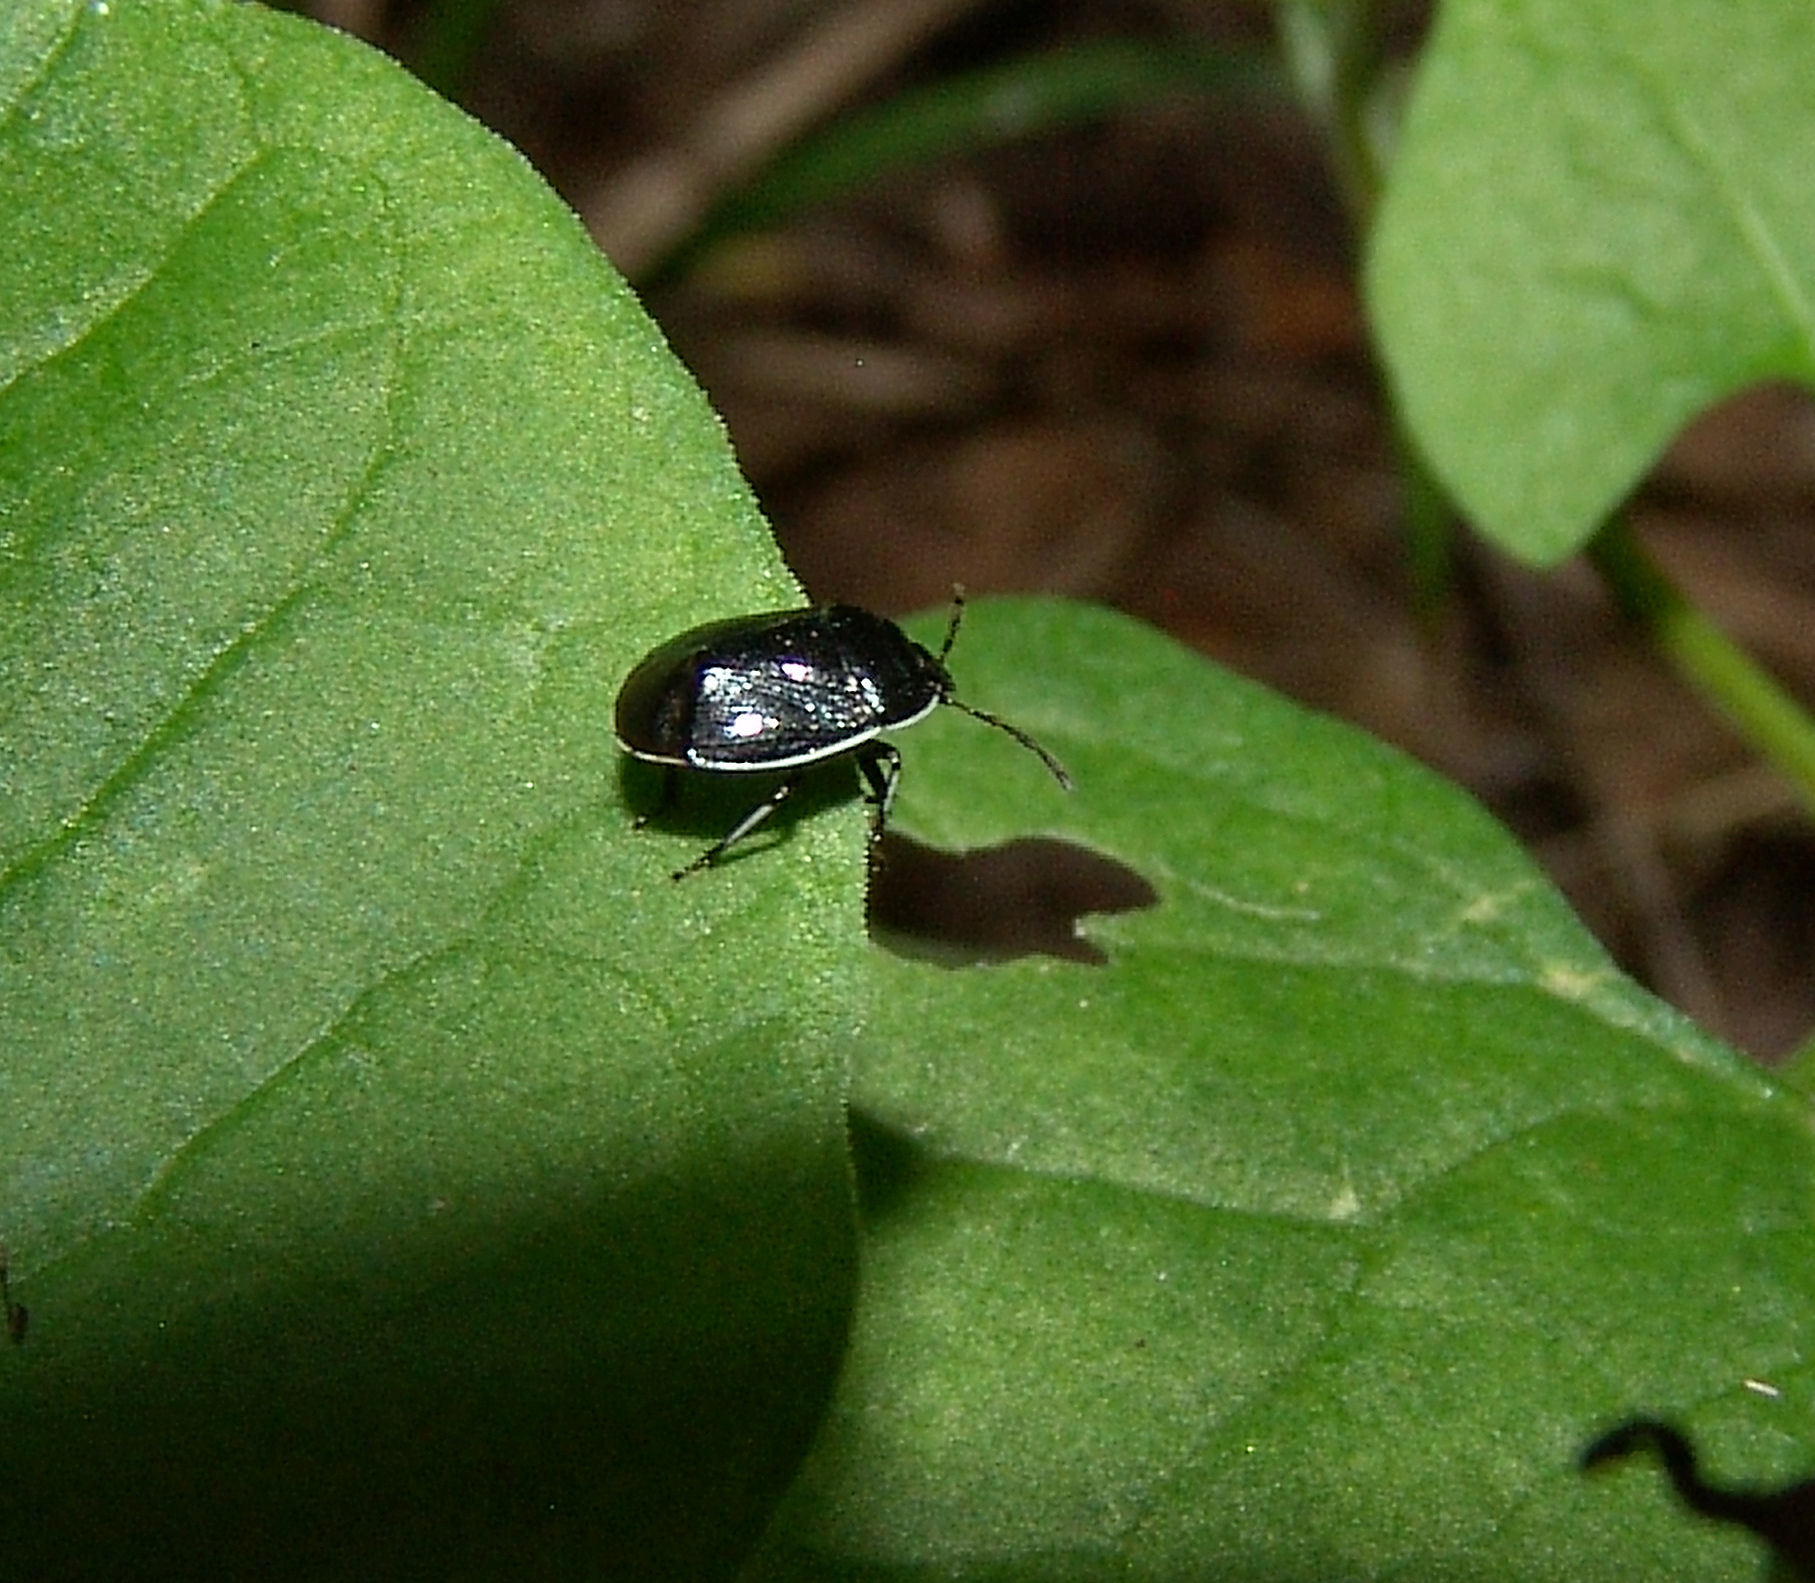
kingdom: Animalia
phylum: Arthropoda
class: Insecta
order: Hemiptera
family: Cydnidae
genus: Sehirus
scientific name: Sehirus cinctus
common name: White-margined burrower bug
